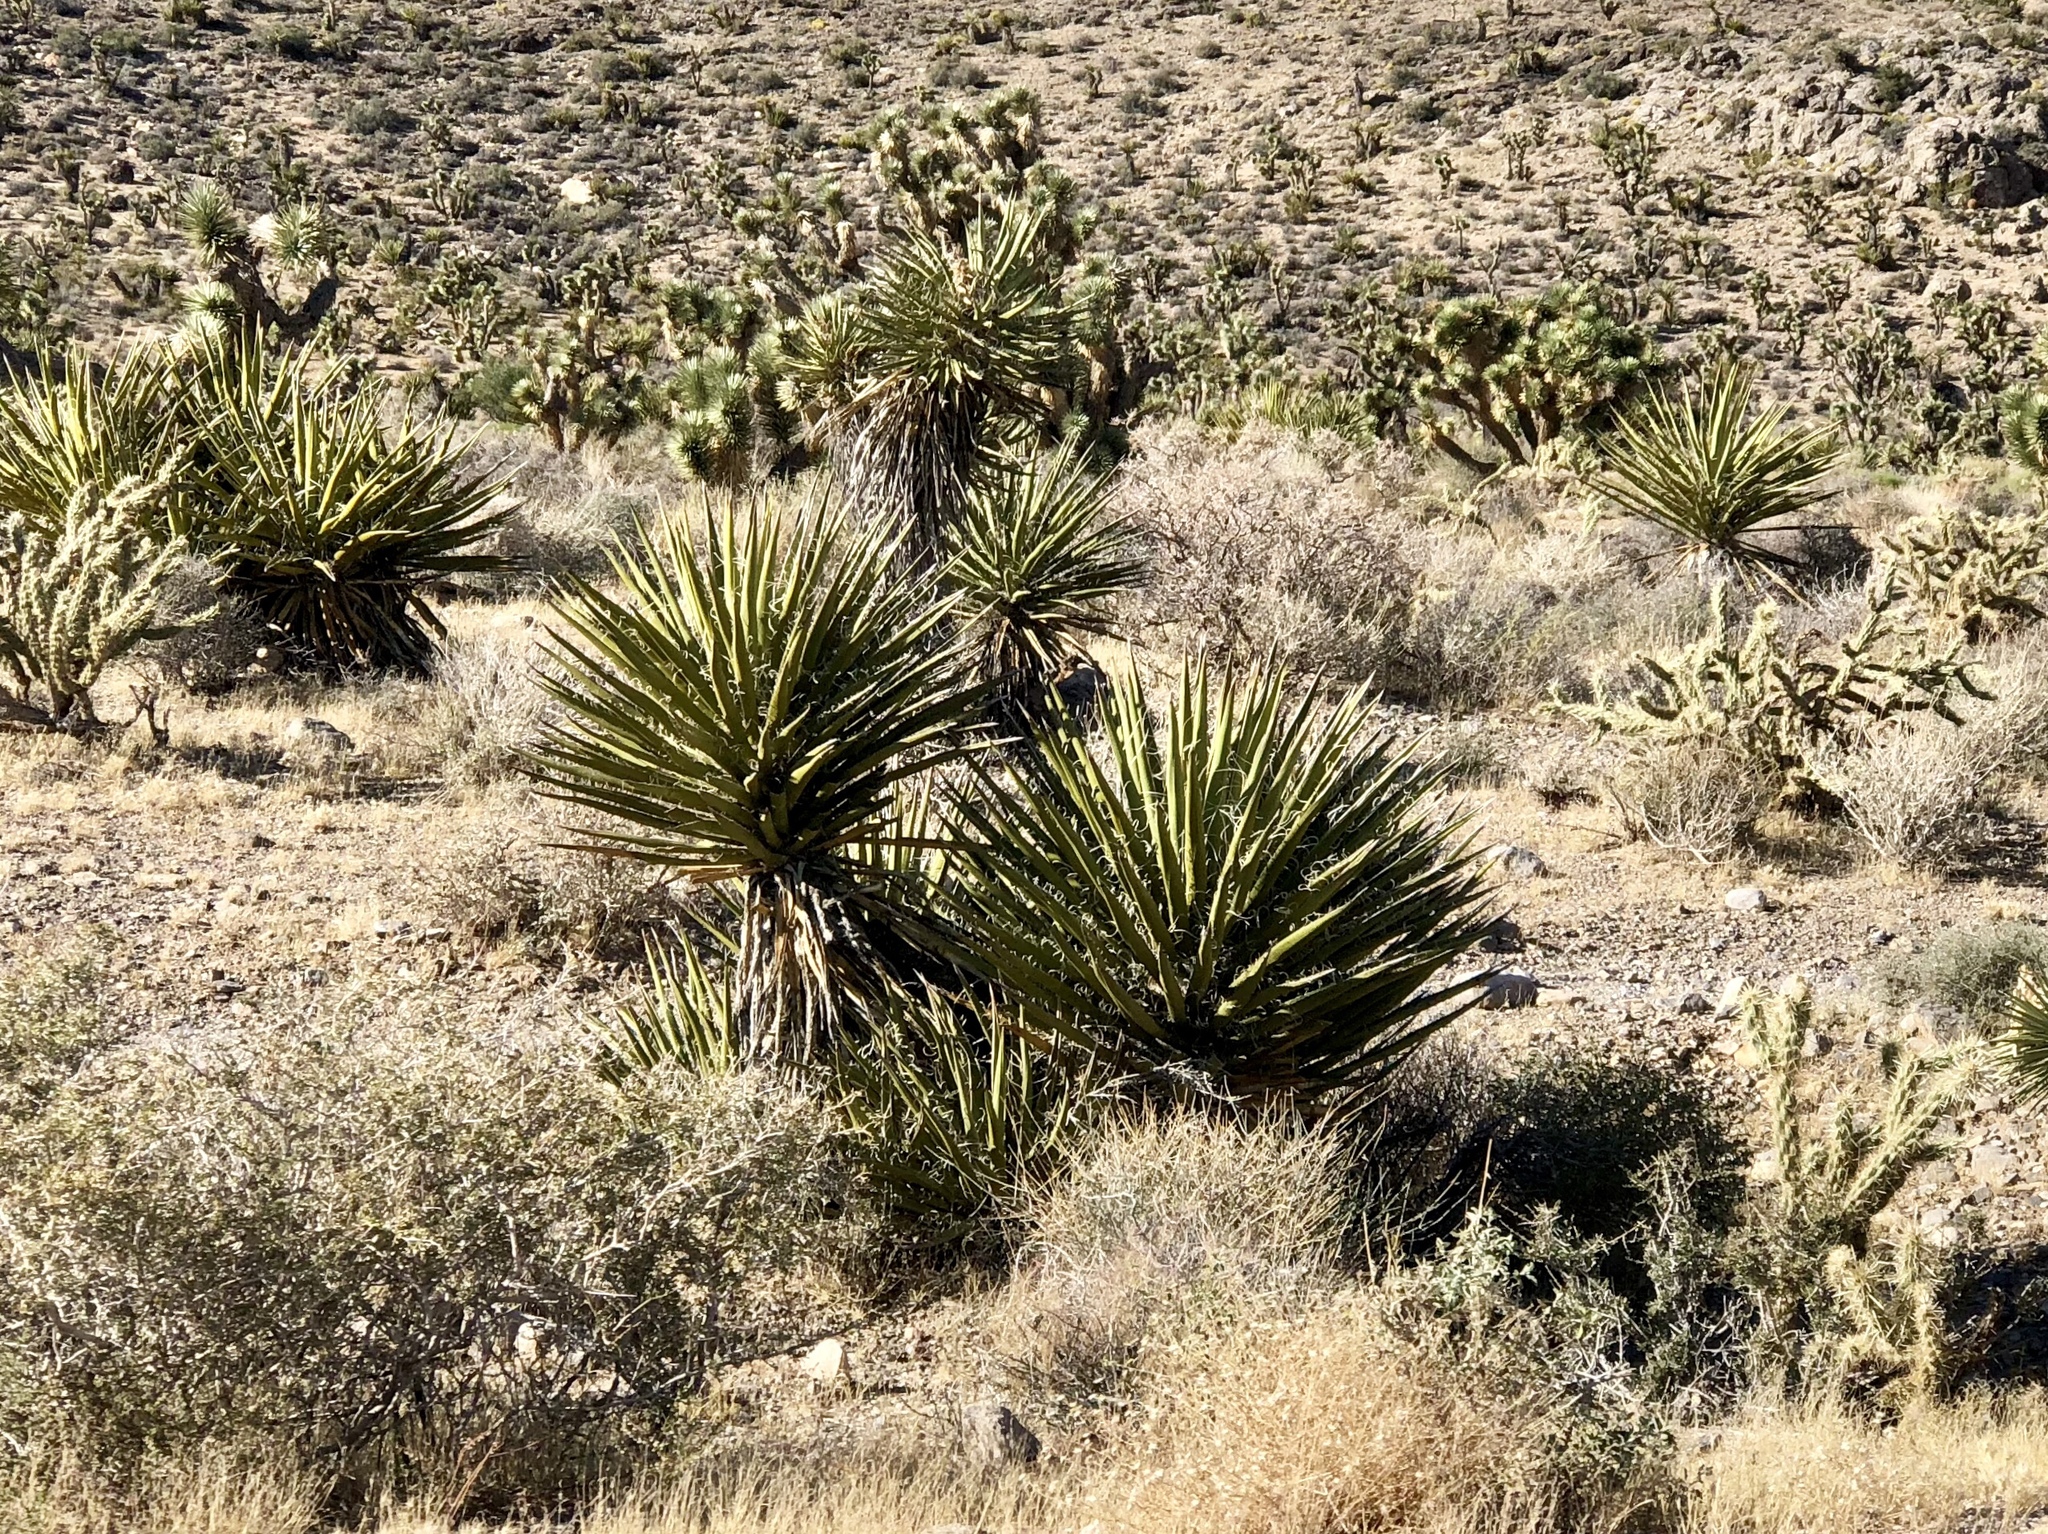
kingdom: Plantae
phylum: Tracheophyta
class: Liliopsida
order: Asparagales
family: Asparagaceae
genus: Yucca
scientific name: Yucca schidigera
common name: Mojave yucca
